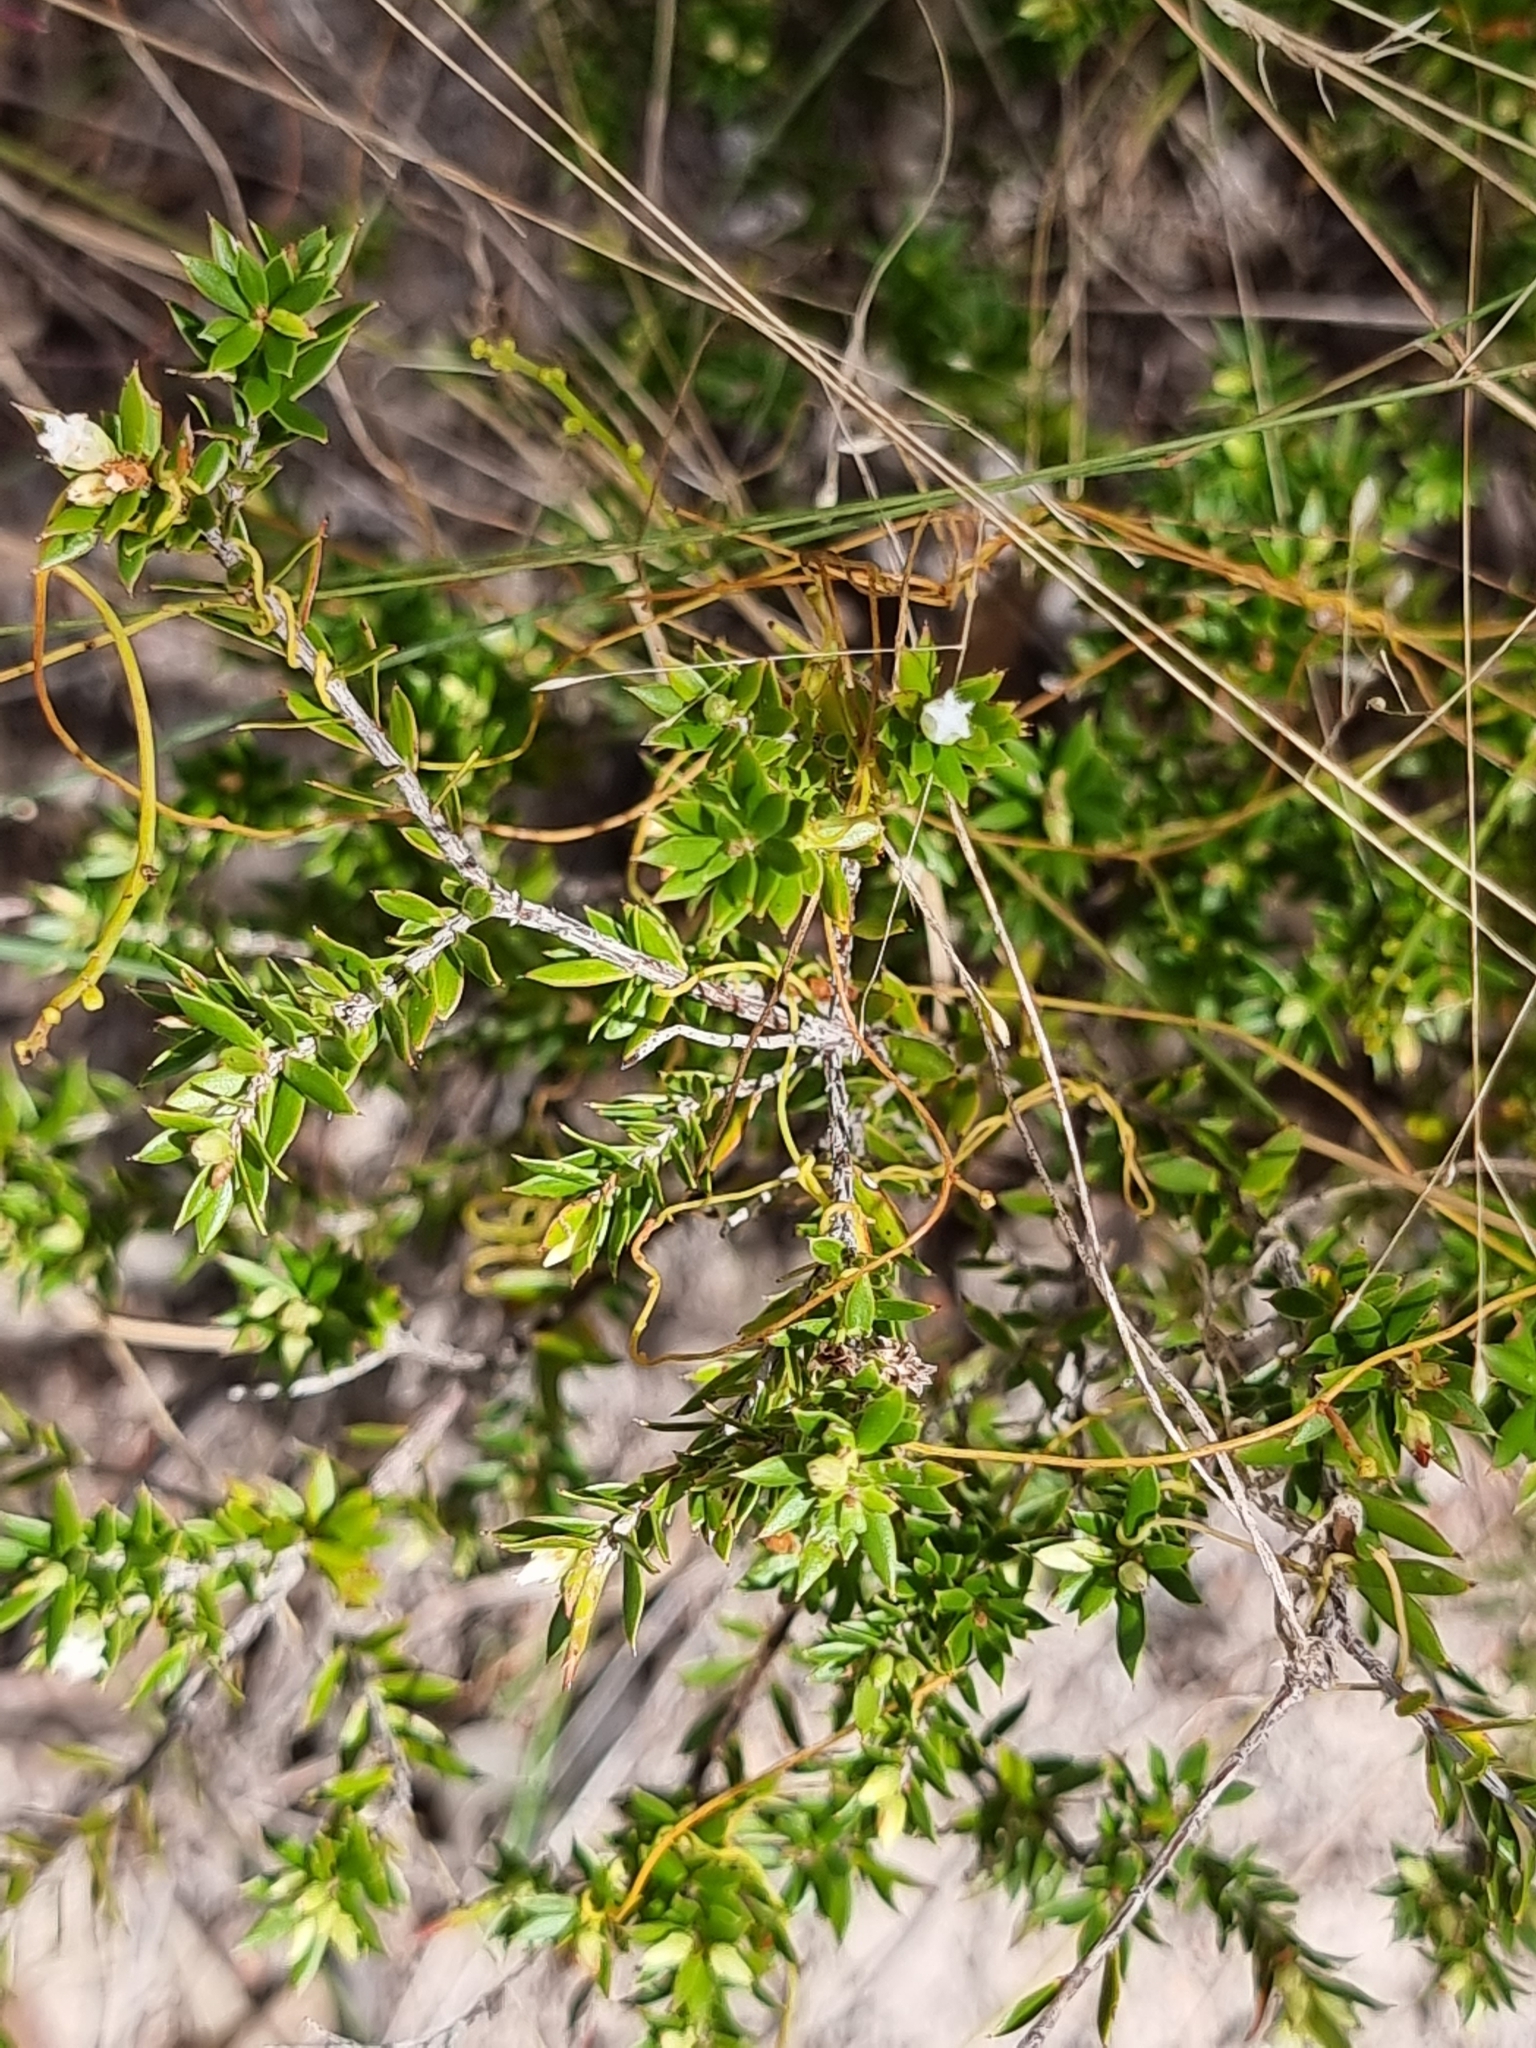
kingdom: Plantae
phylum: Tracheophyta
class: Magnoliopsida
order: Ericales
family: Ericaceae
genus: Styphelia
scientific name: Styphelia leptospermoides
